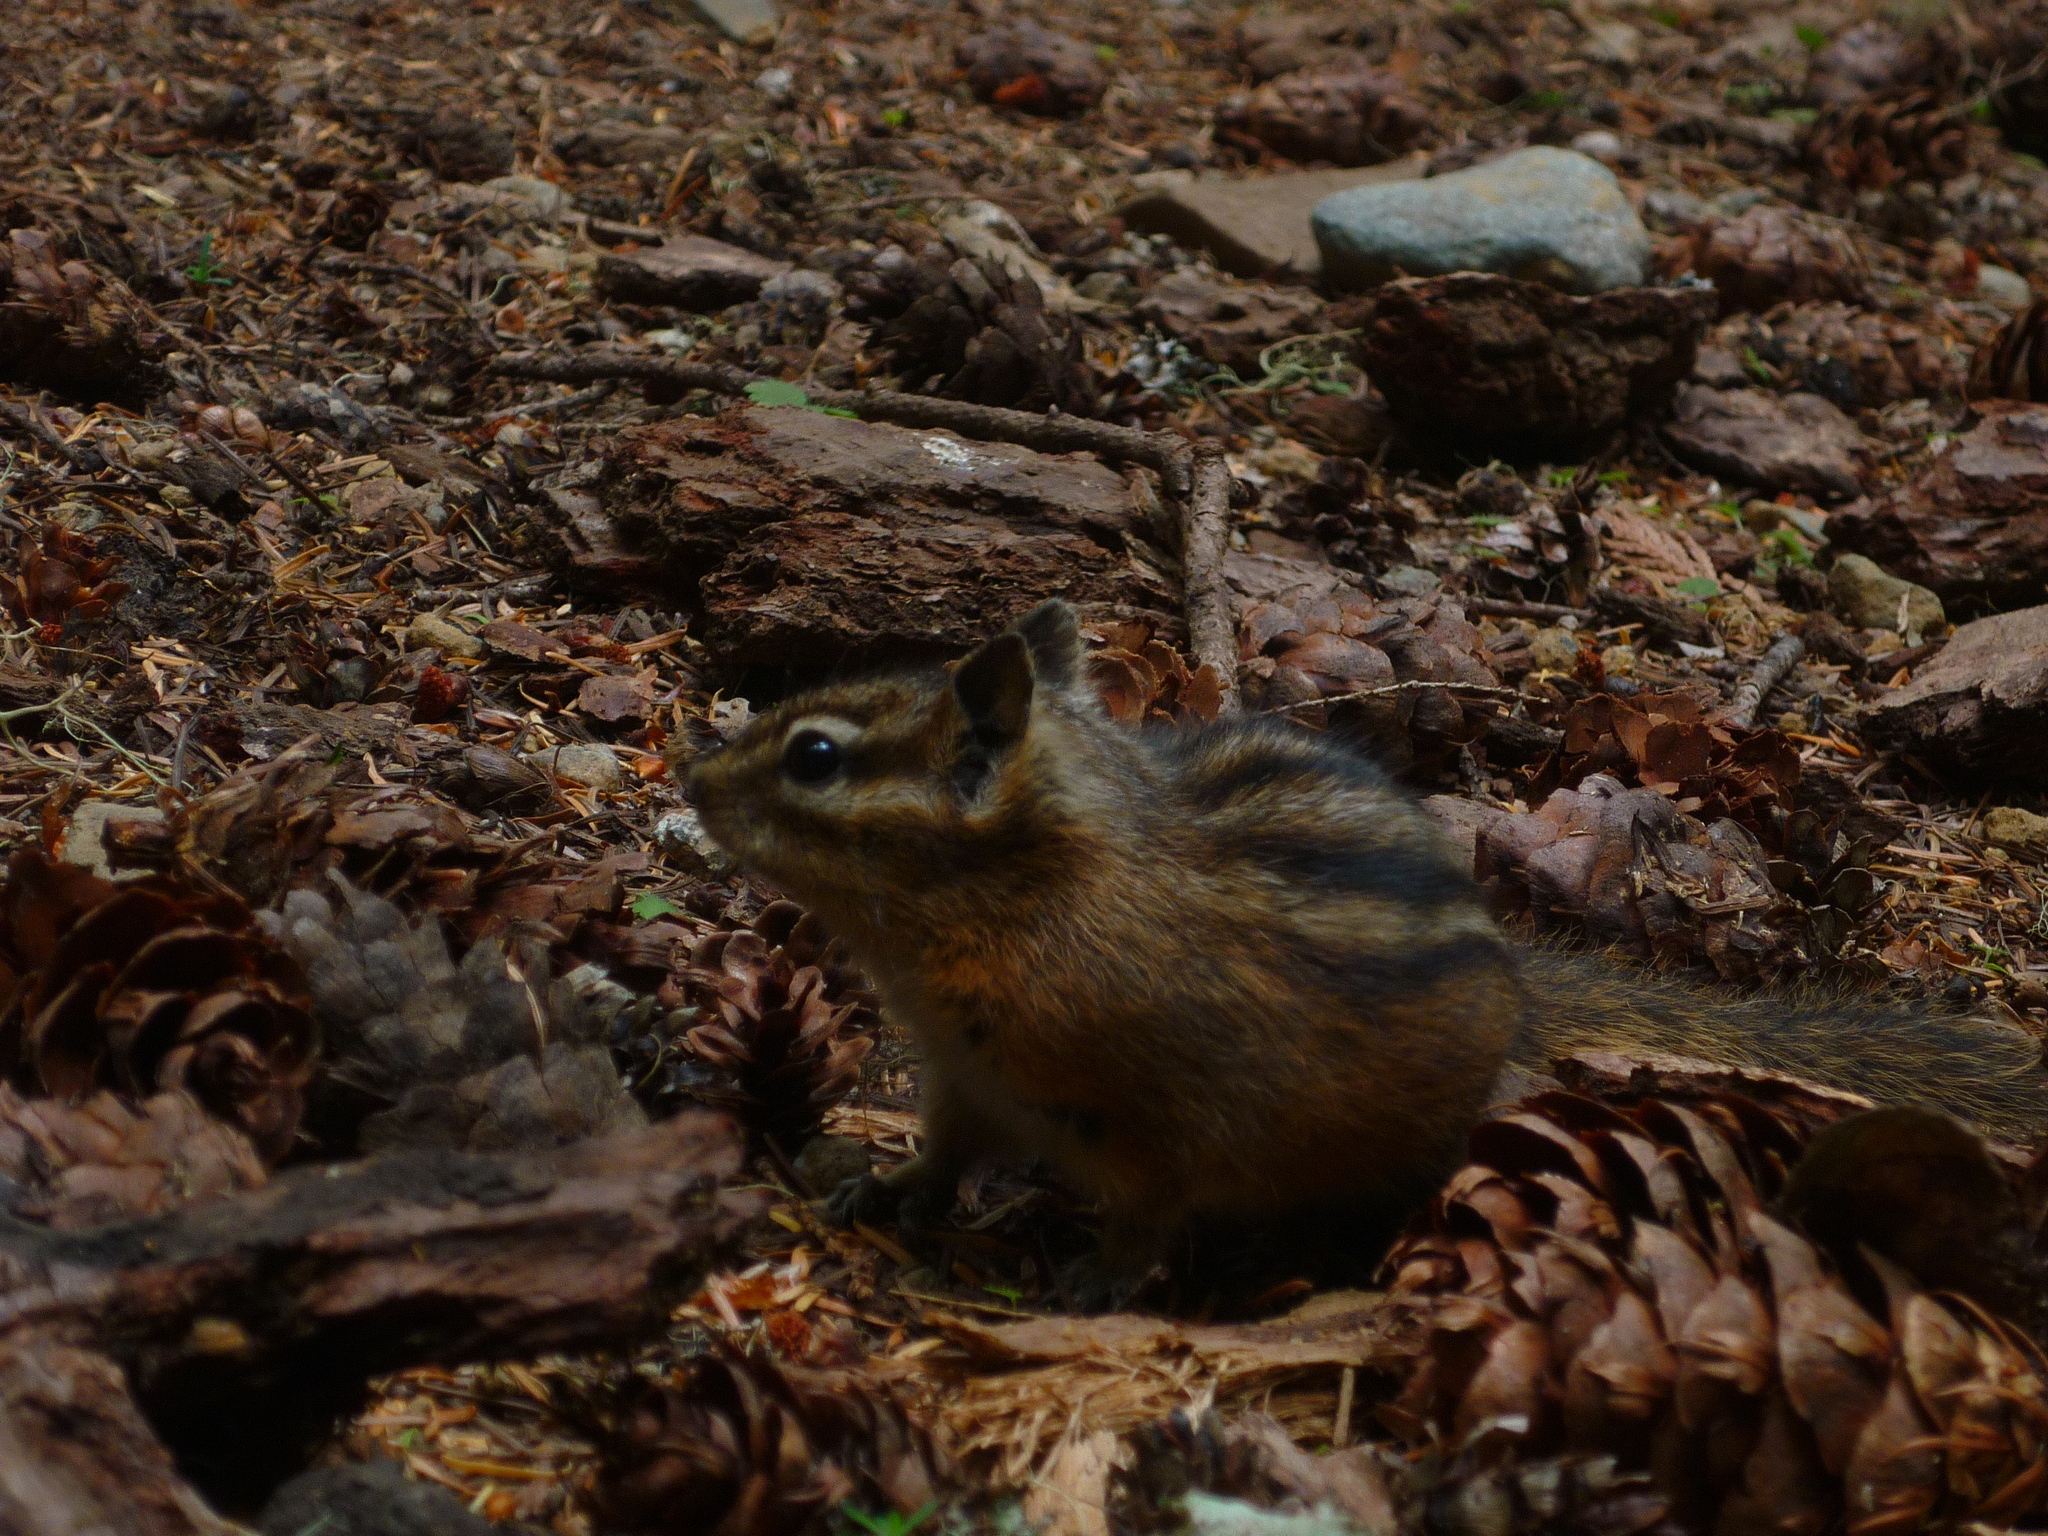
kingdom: Animalia
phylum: Chordata
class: Mammalia
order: Rodentia
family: Sciuridae
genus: Neotamias
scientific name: Neotamias
